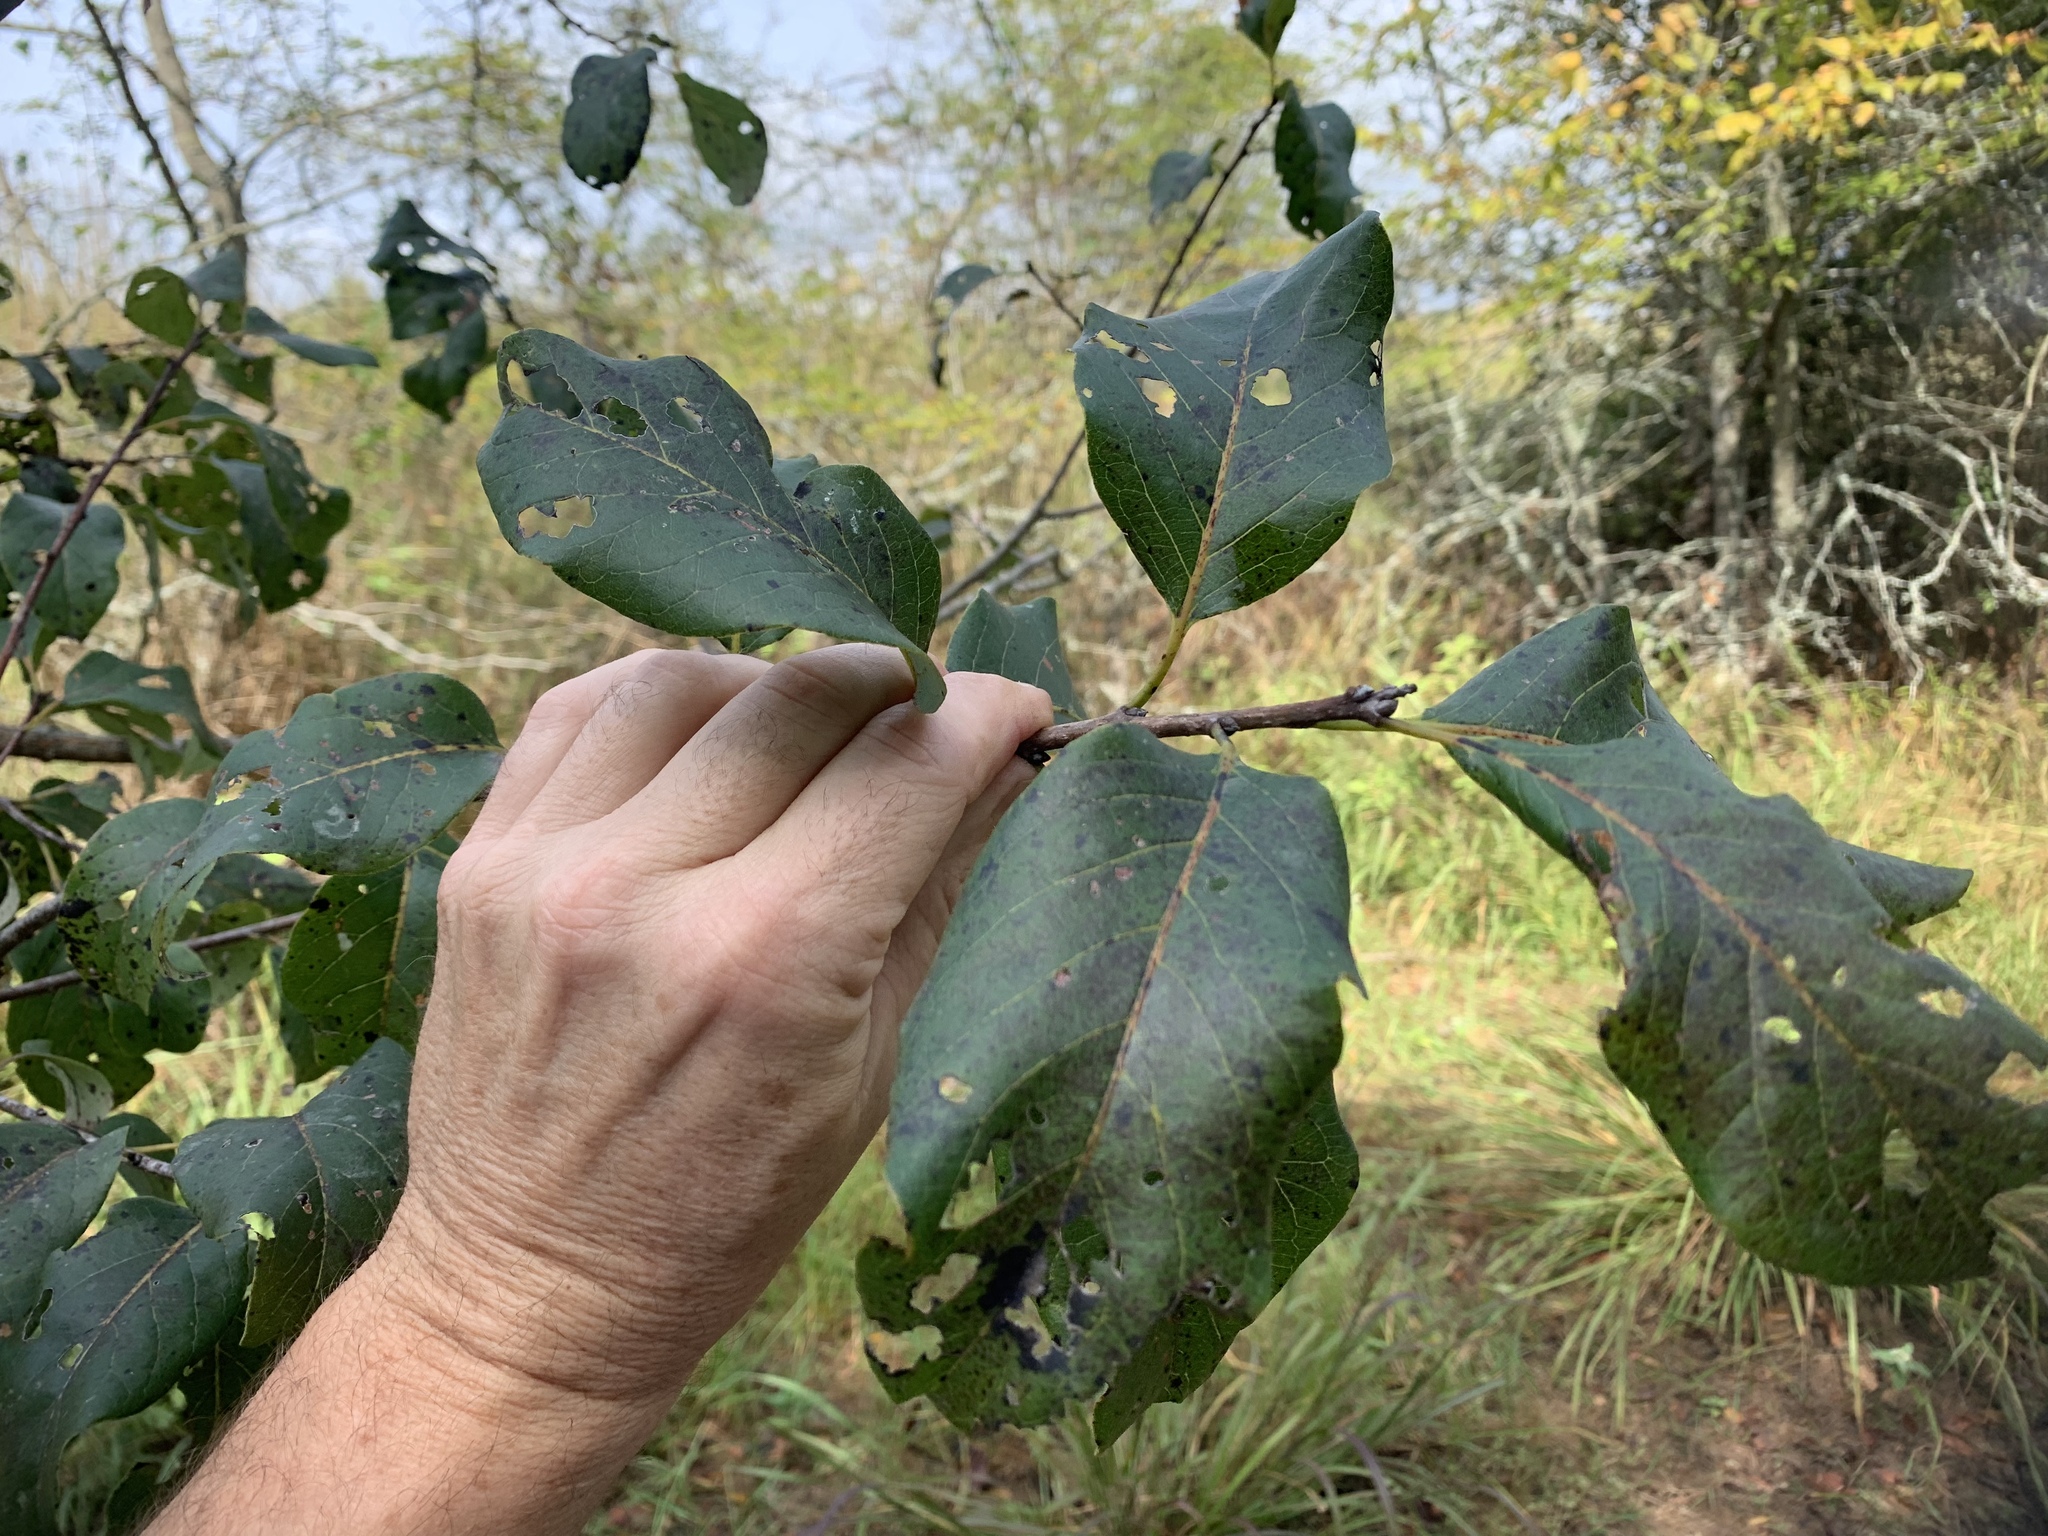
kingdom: Plantae
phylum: Tracheophyta
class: Magnoliopsida
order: Ericales
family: Ebenaceae
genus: Diospyros
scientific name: Diospyros virginiana
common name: Persimmon
